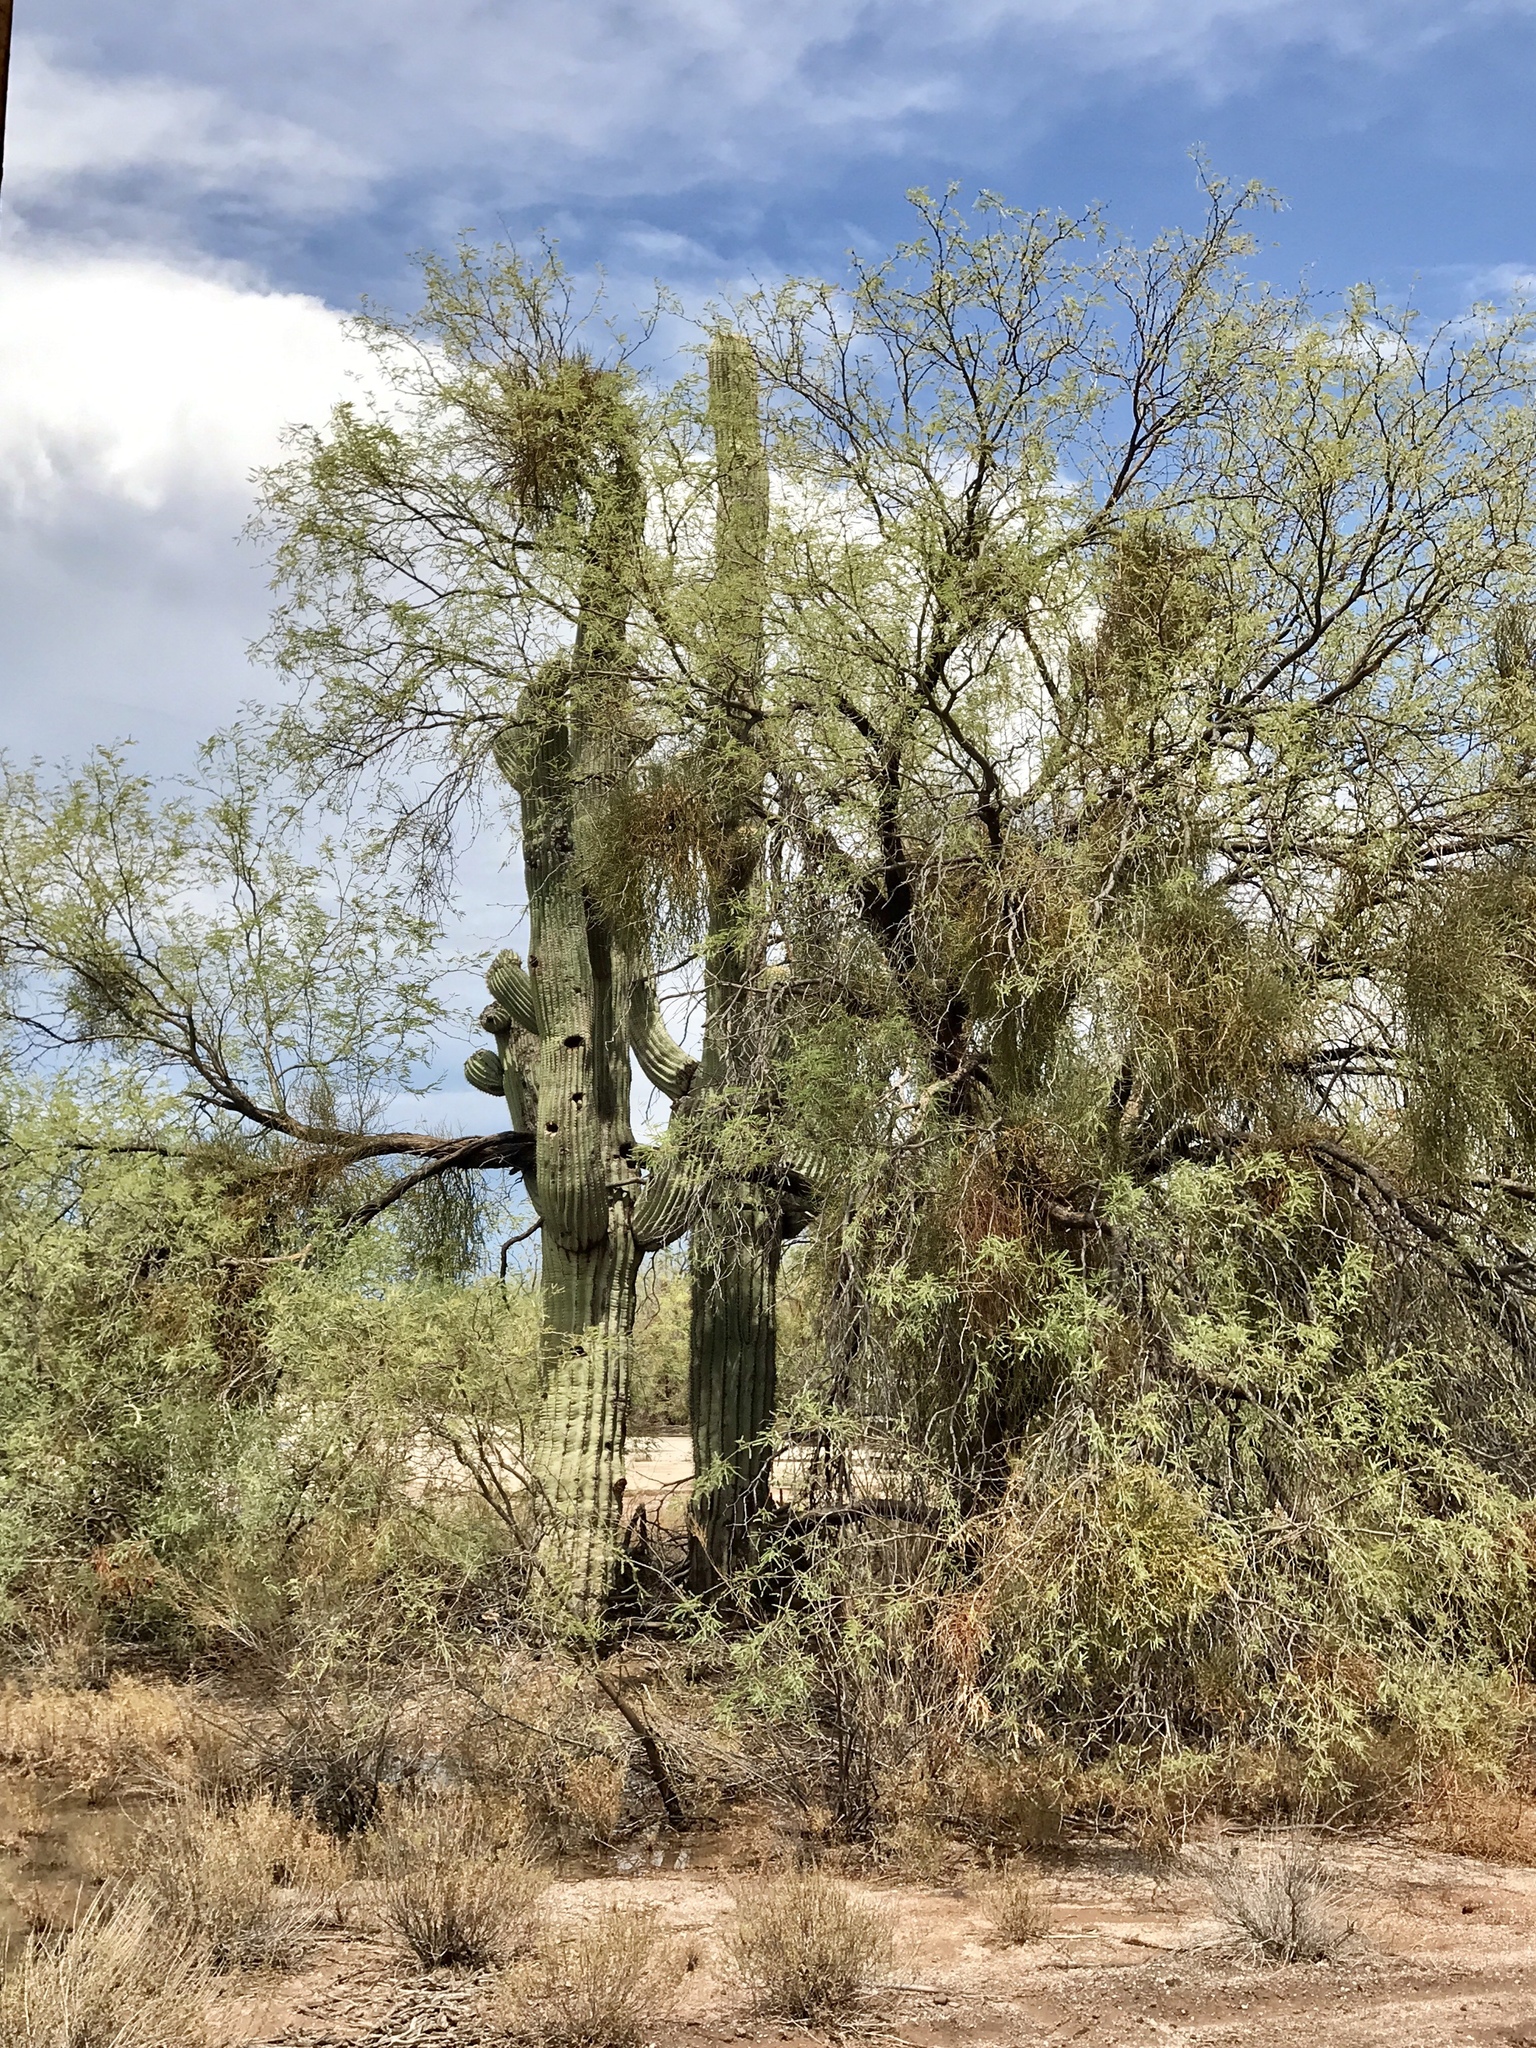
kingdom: Plantae
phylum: Tracheophyta
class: Magnoliopsida
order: Caryophyllales
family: Cactaceae
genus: Carnegiea
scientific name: Carnegiea gigantea
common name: Saguaro
